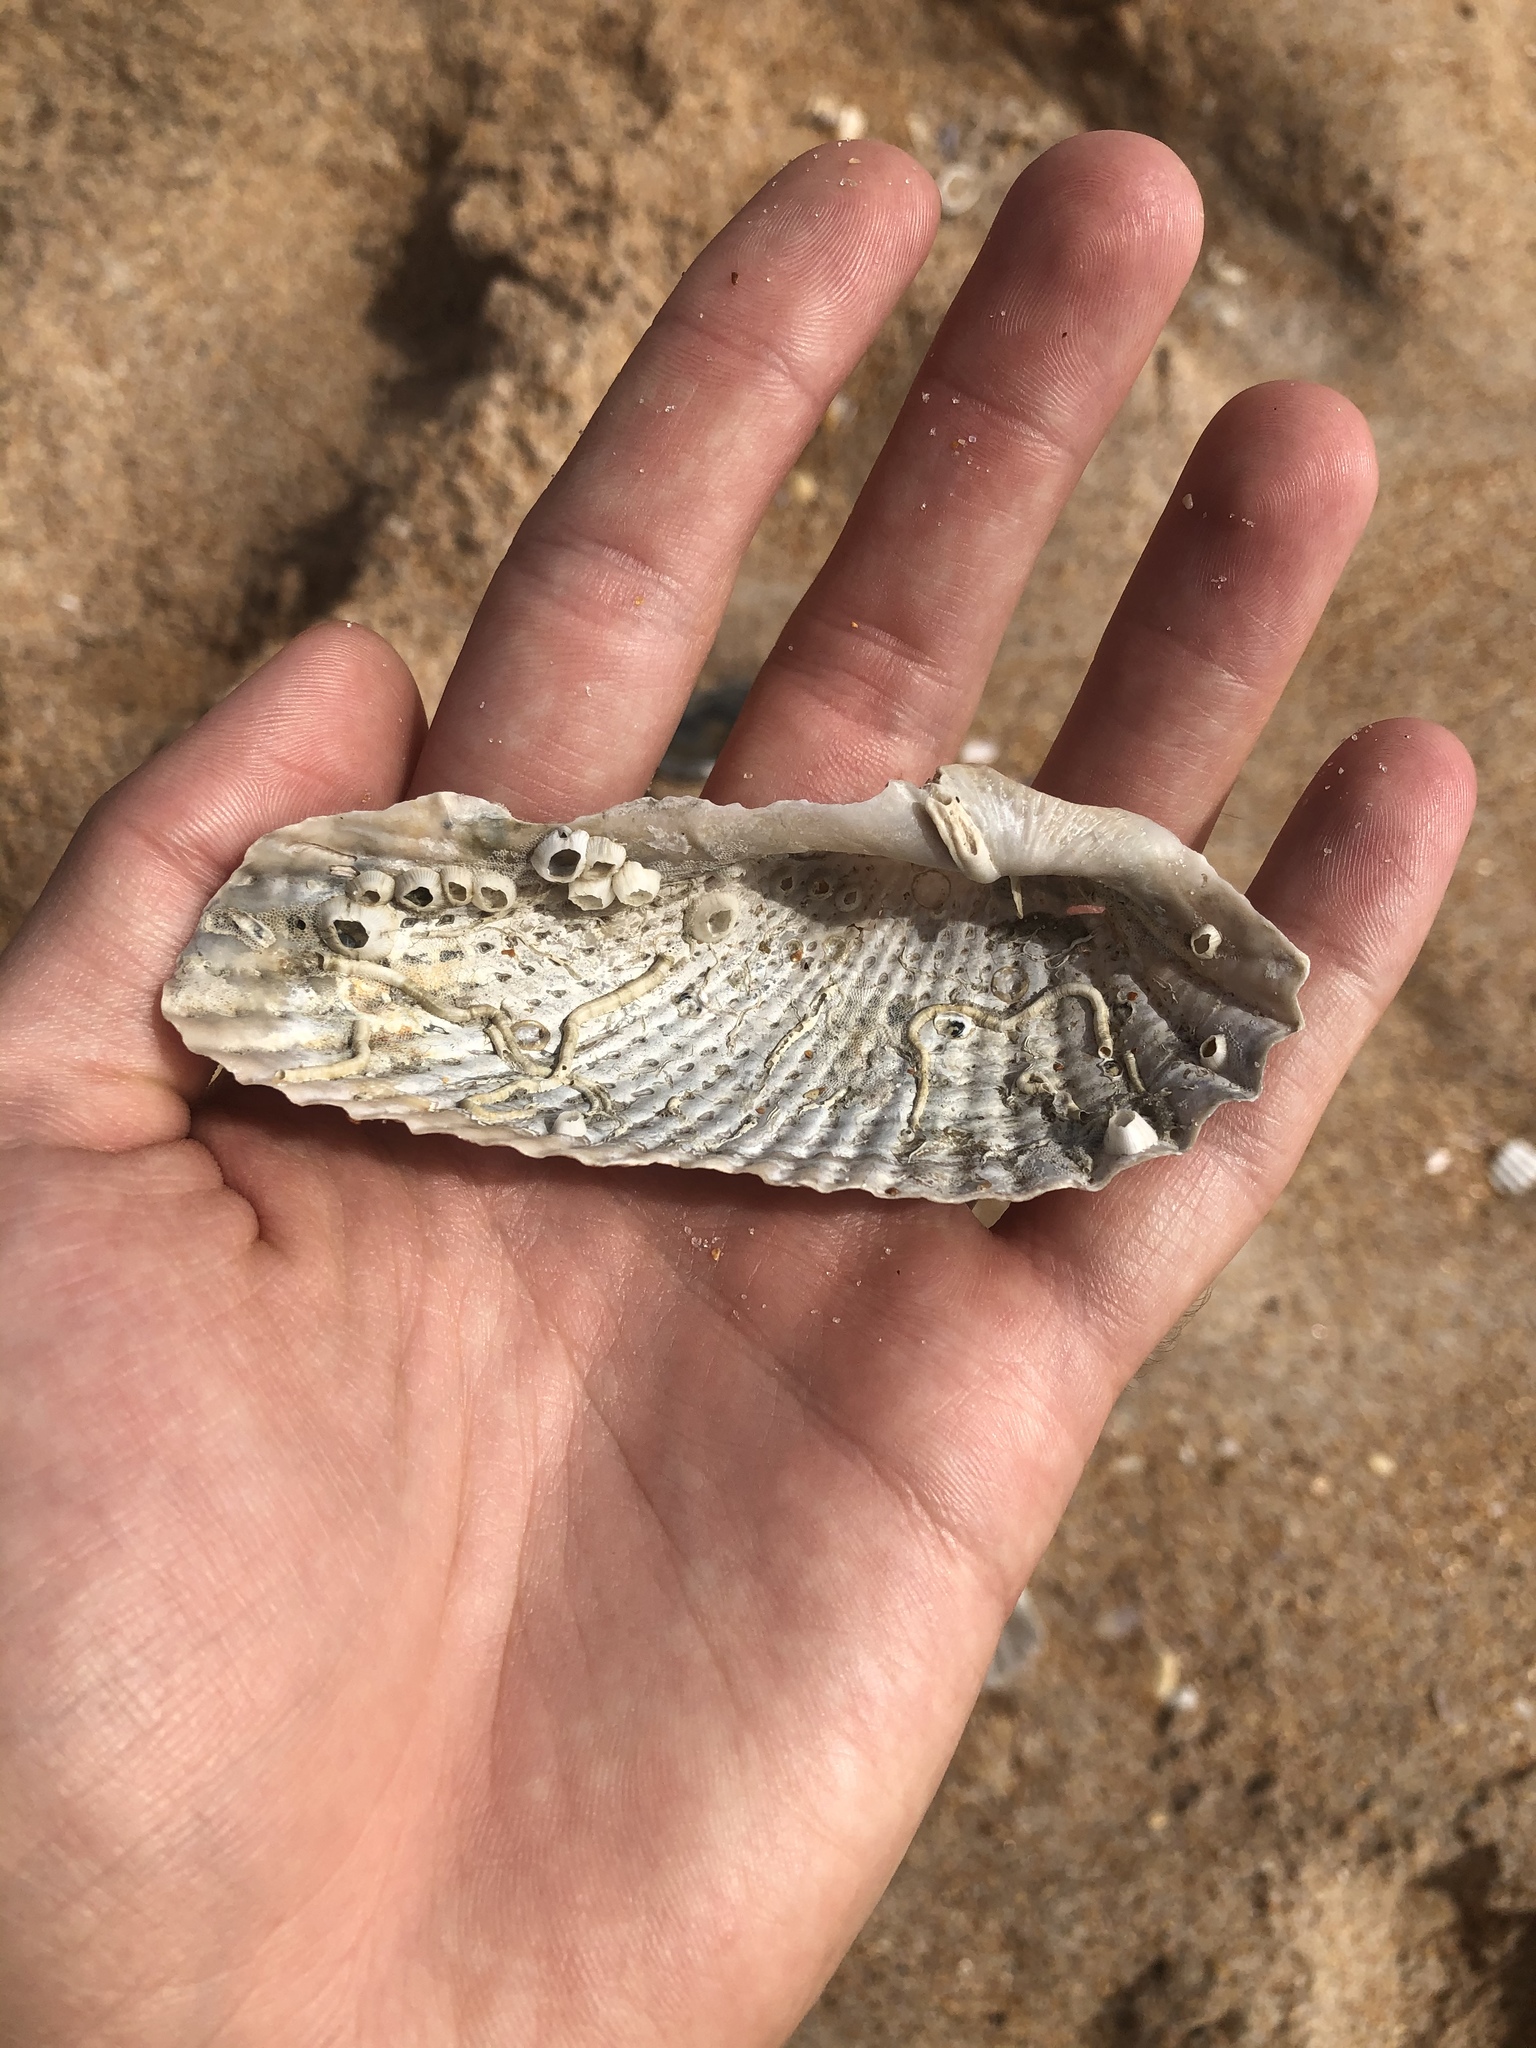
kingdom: Animalia
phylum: Mollusca
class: Bivalvia
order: Myida
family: Pholadidae
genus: Cyrtopleura
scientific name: Cyrtopleura costata
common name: Angel wing
